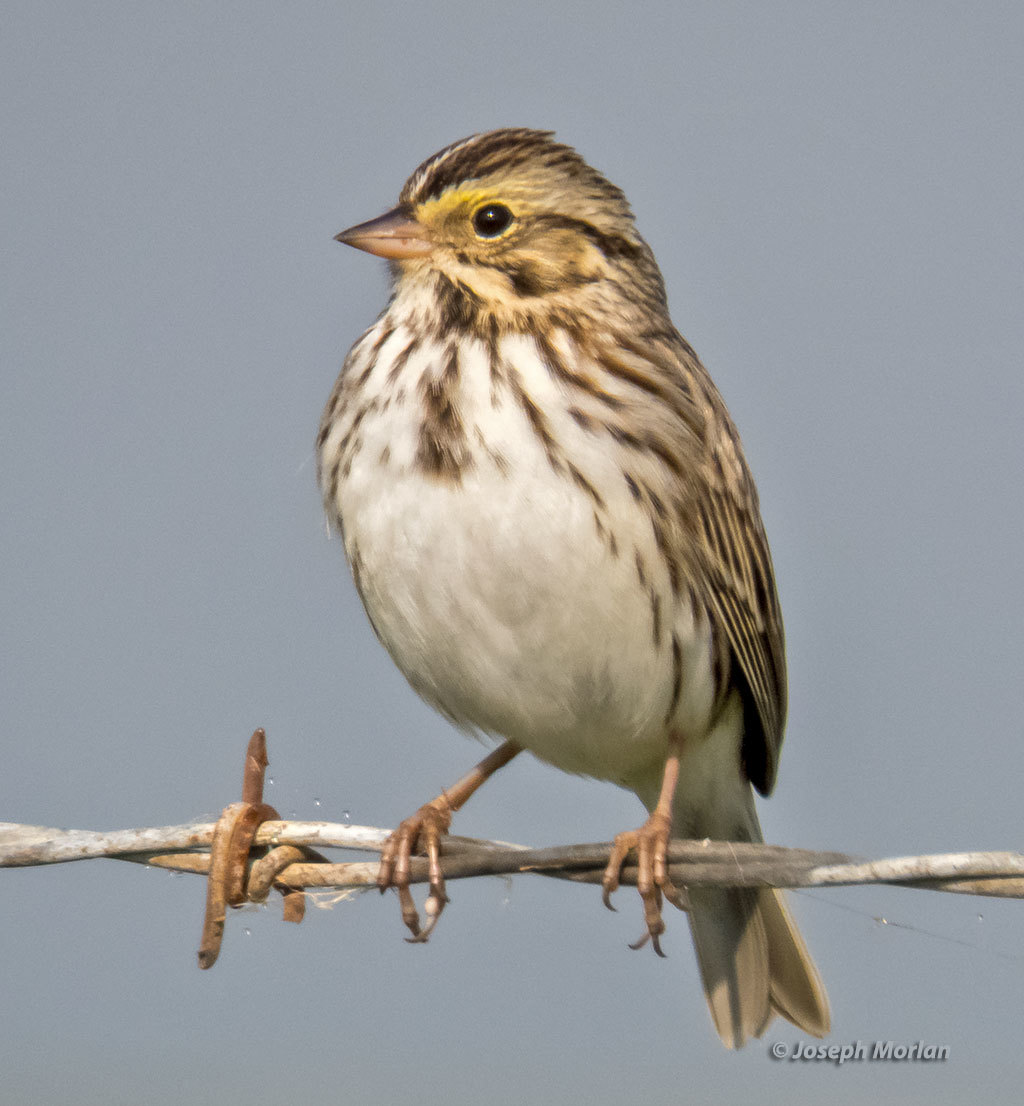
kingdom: Animalia
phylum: Chordata
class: Aves
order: Passeriformes
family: Passerellidae
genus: Passerculus
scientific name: Passerculus sandwichensis
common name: Savannah sparrow
